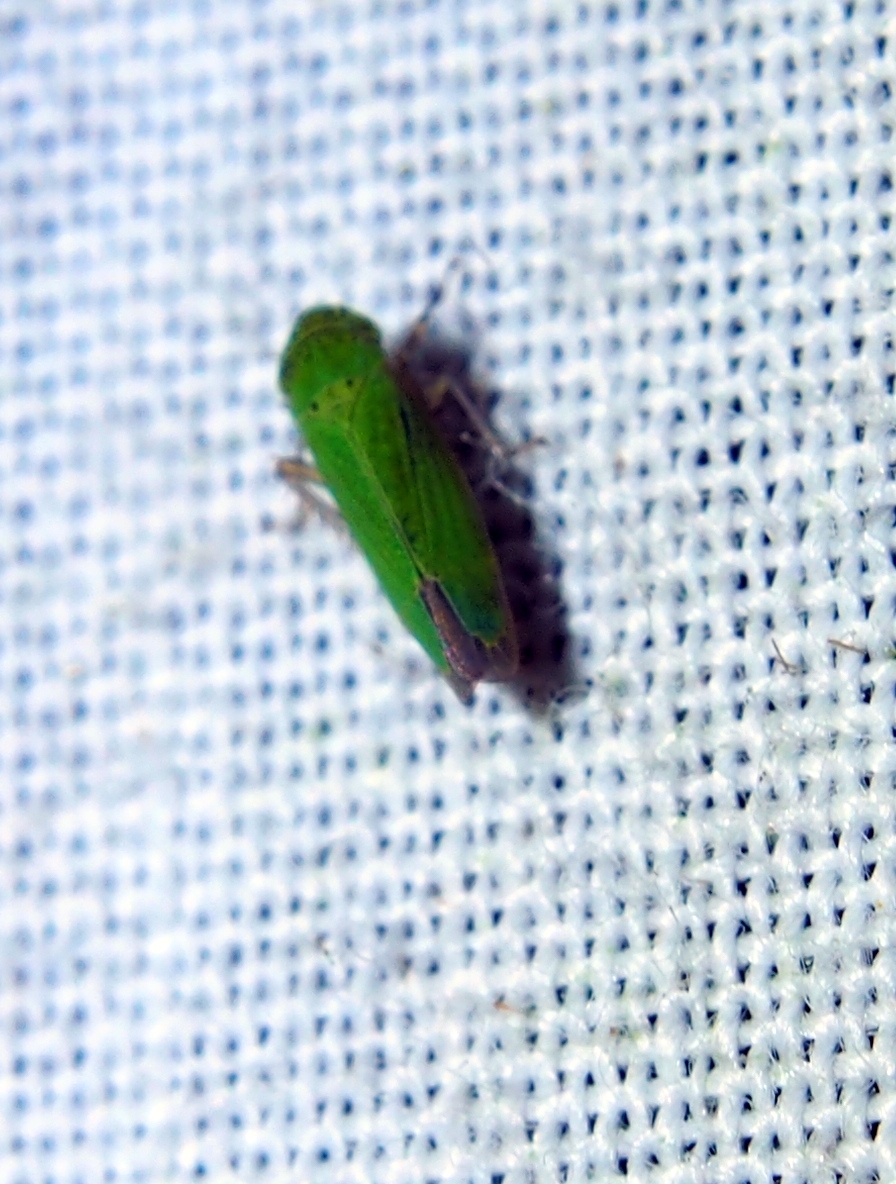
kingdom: Animalia
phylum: Arthropoda
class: Insecta
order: Hemiptera
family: Cicadellidae
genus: Hortensia
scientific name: Hortensia similis
